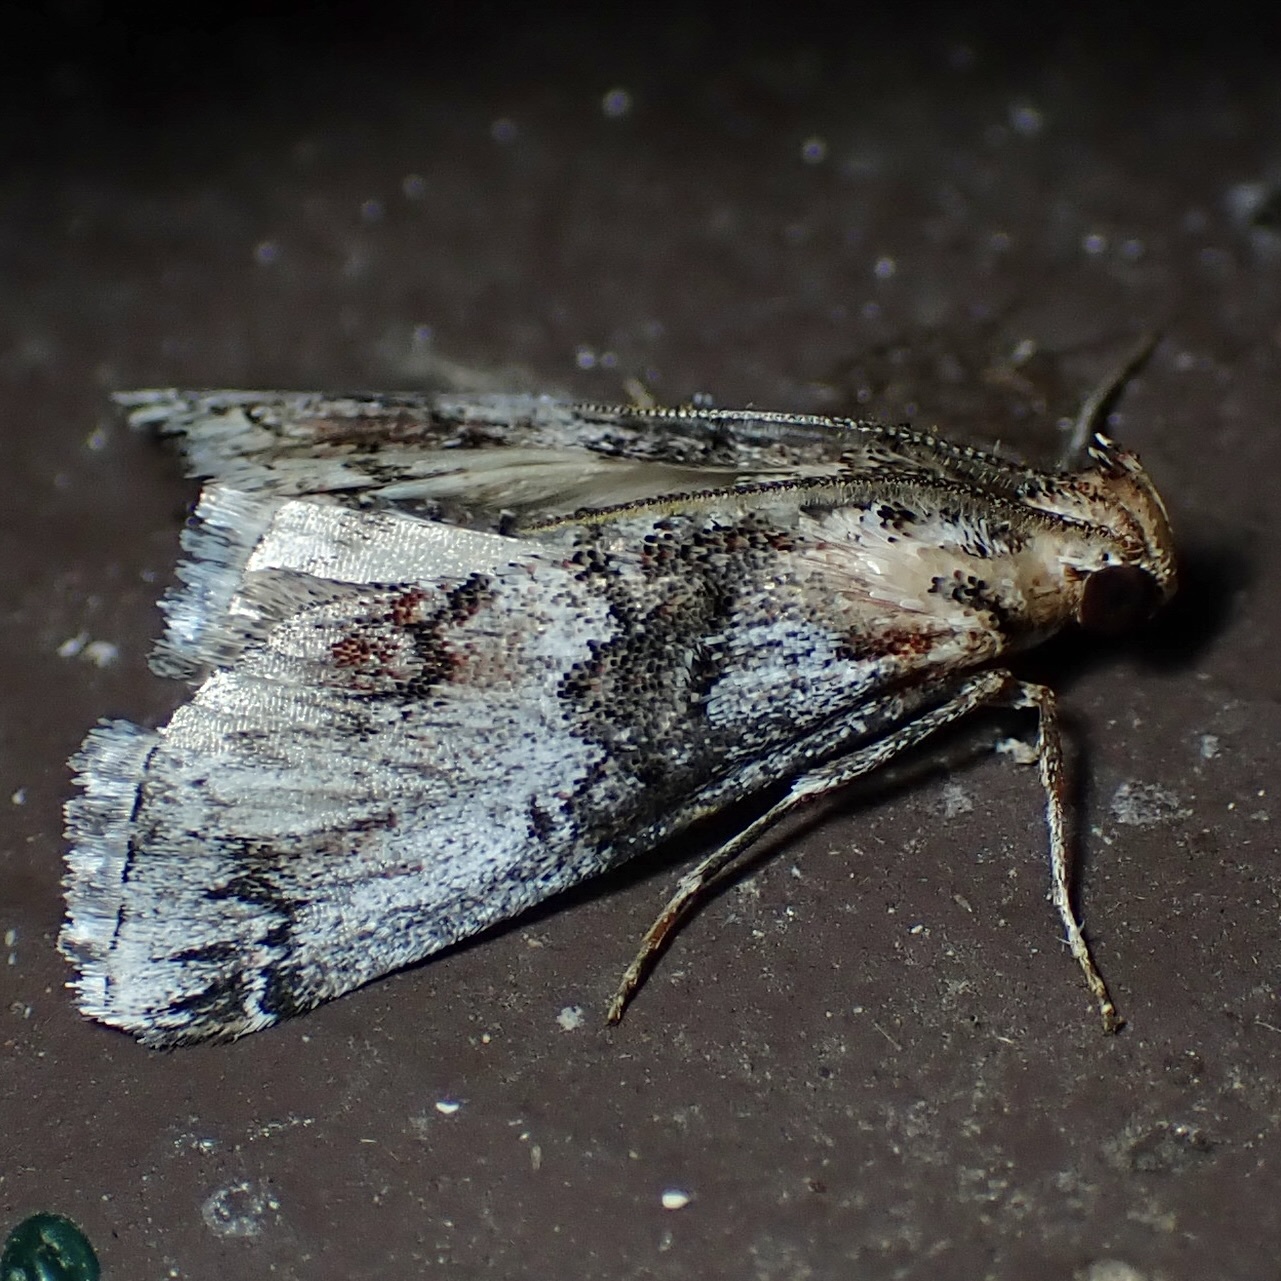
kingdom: Animalia
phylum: Arthropoda
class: Insecta
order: Lepidoptera
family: Pyralidae
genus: Toripalpus
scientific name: Toripalpus trabalis
